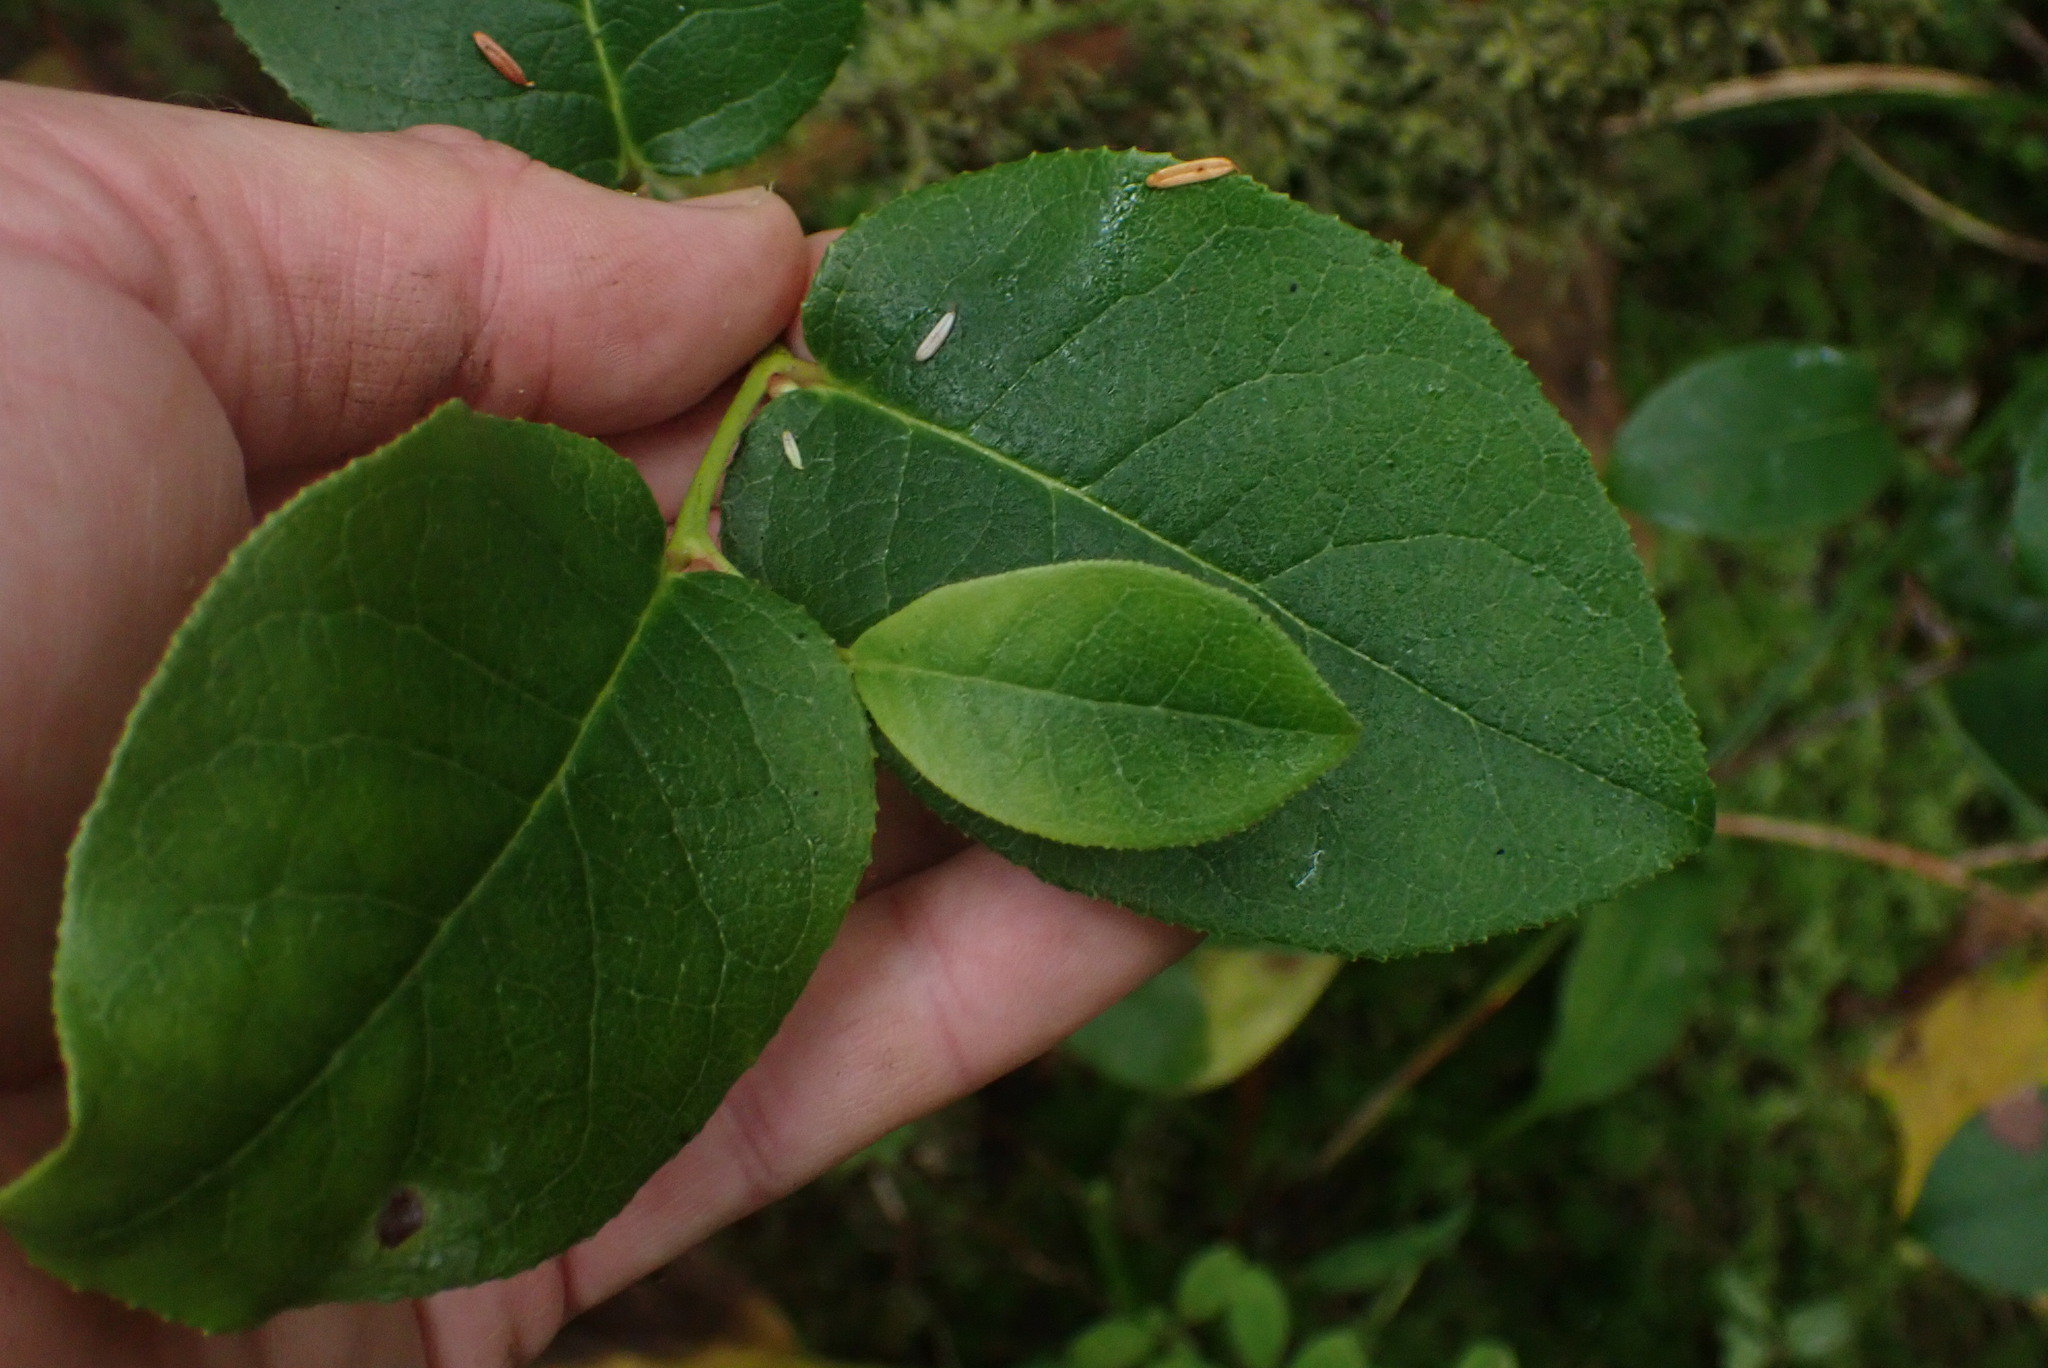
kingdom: Plantae
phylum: Tracheophyta
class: Magnoliopsida
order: Ericales
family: Ericaceae
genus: Gaultheria
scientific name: Gaultheria shallon
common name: Shallon
